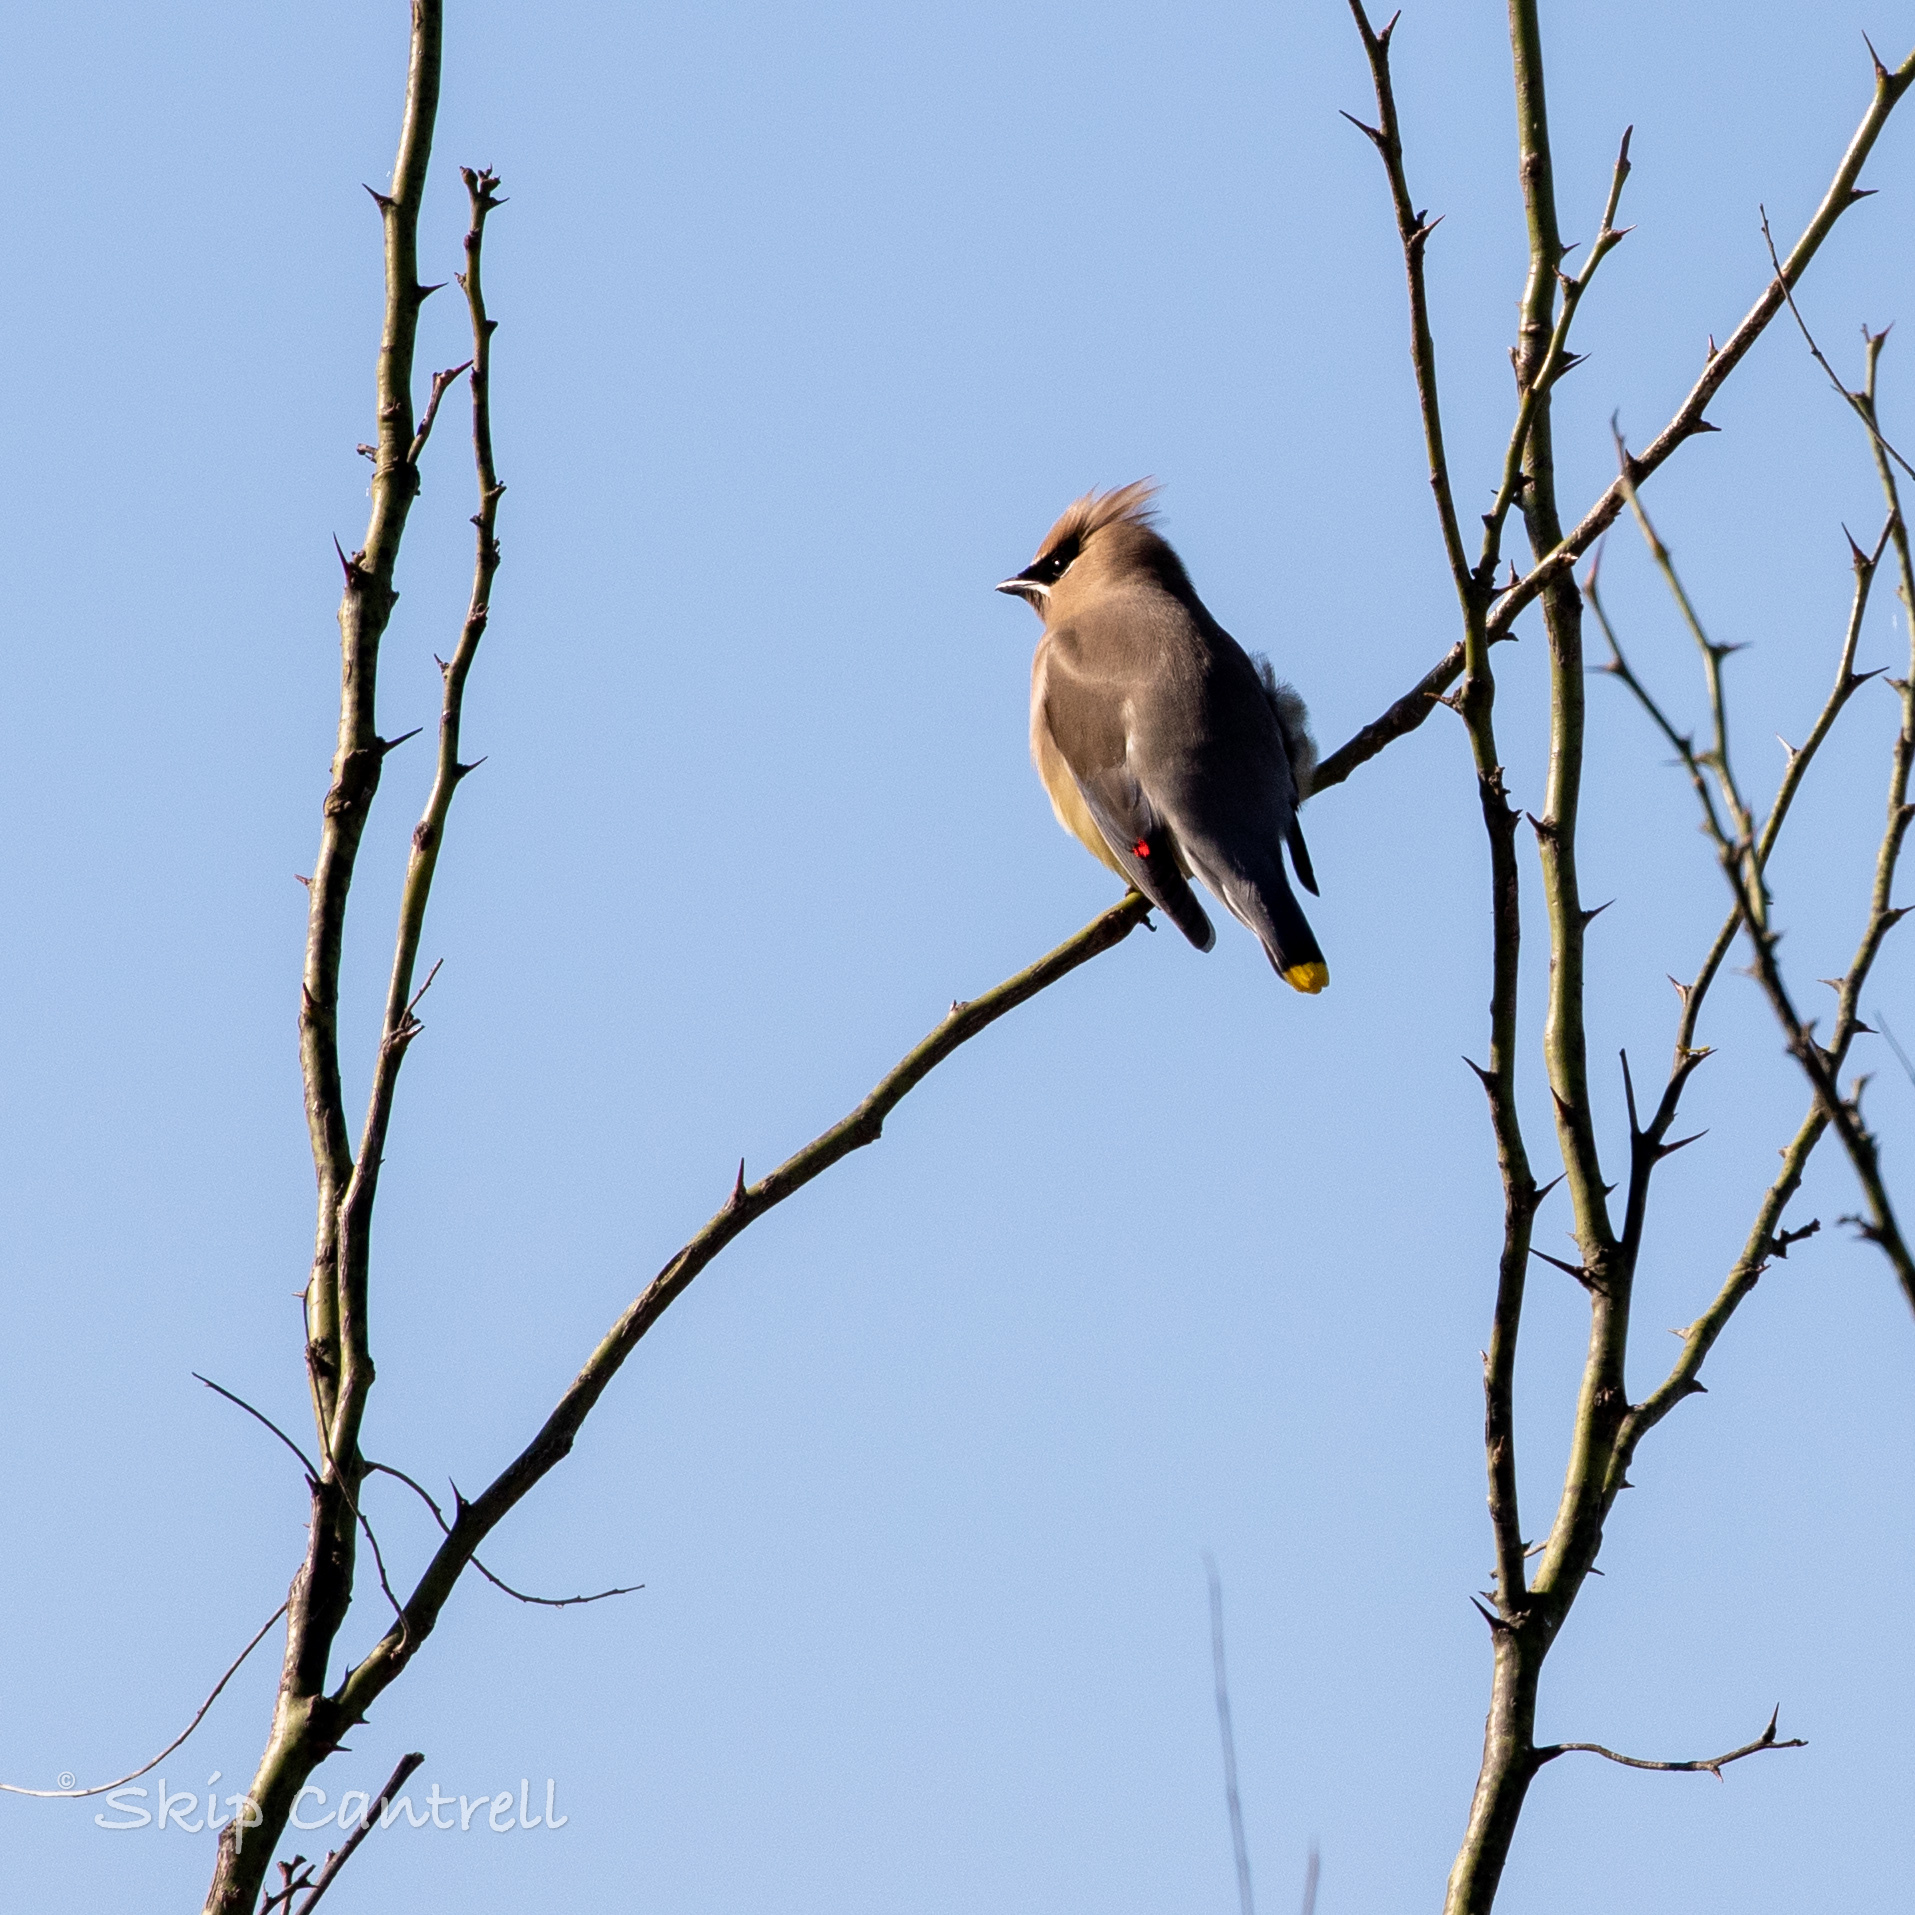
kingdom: Animalia
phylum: Chordata
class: Aves
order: Passeriformes
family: Bombycillidae
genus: Bombycilla
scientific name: Bombycilla cedrorum
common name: Cedar waxwing
